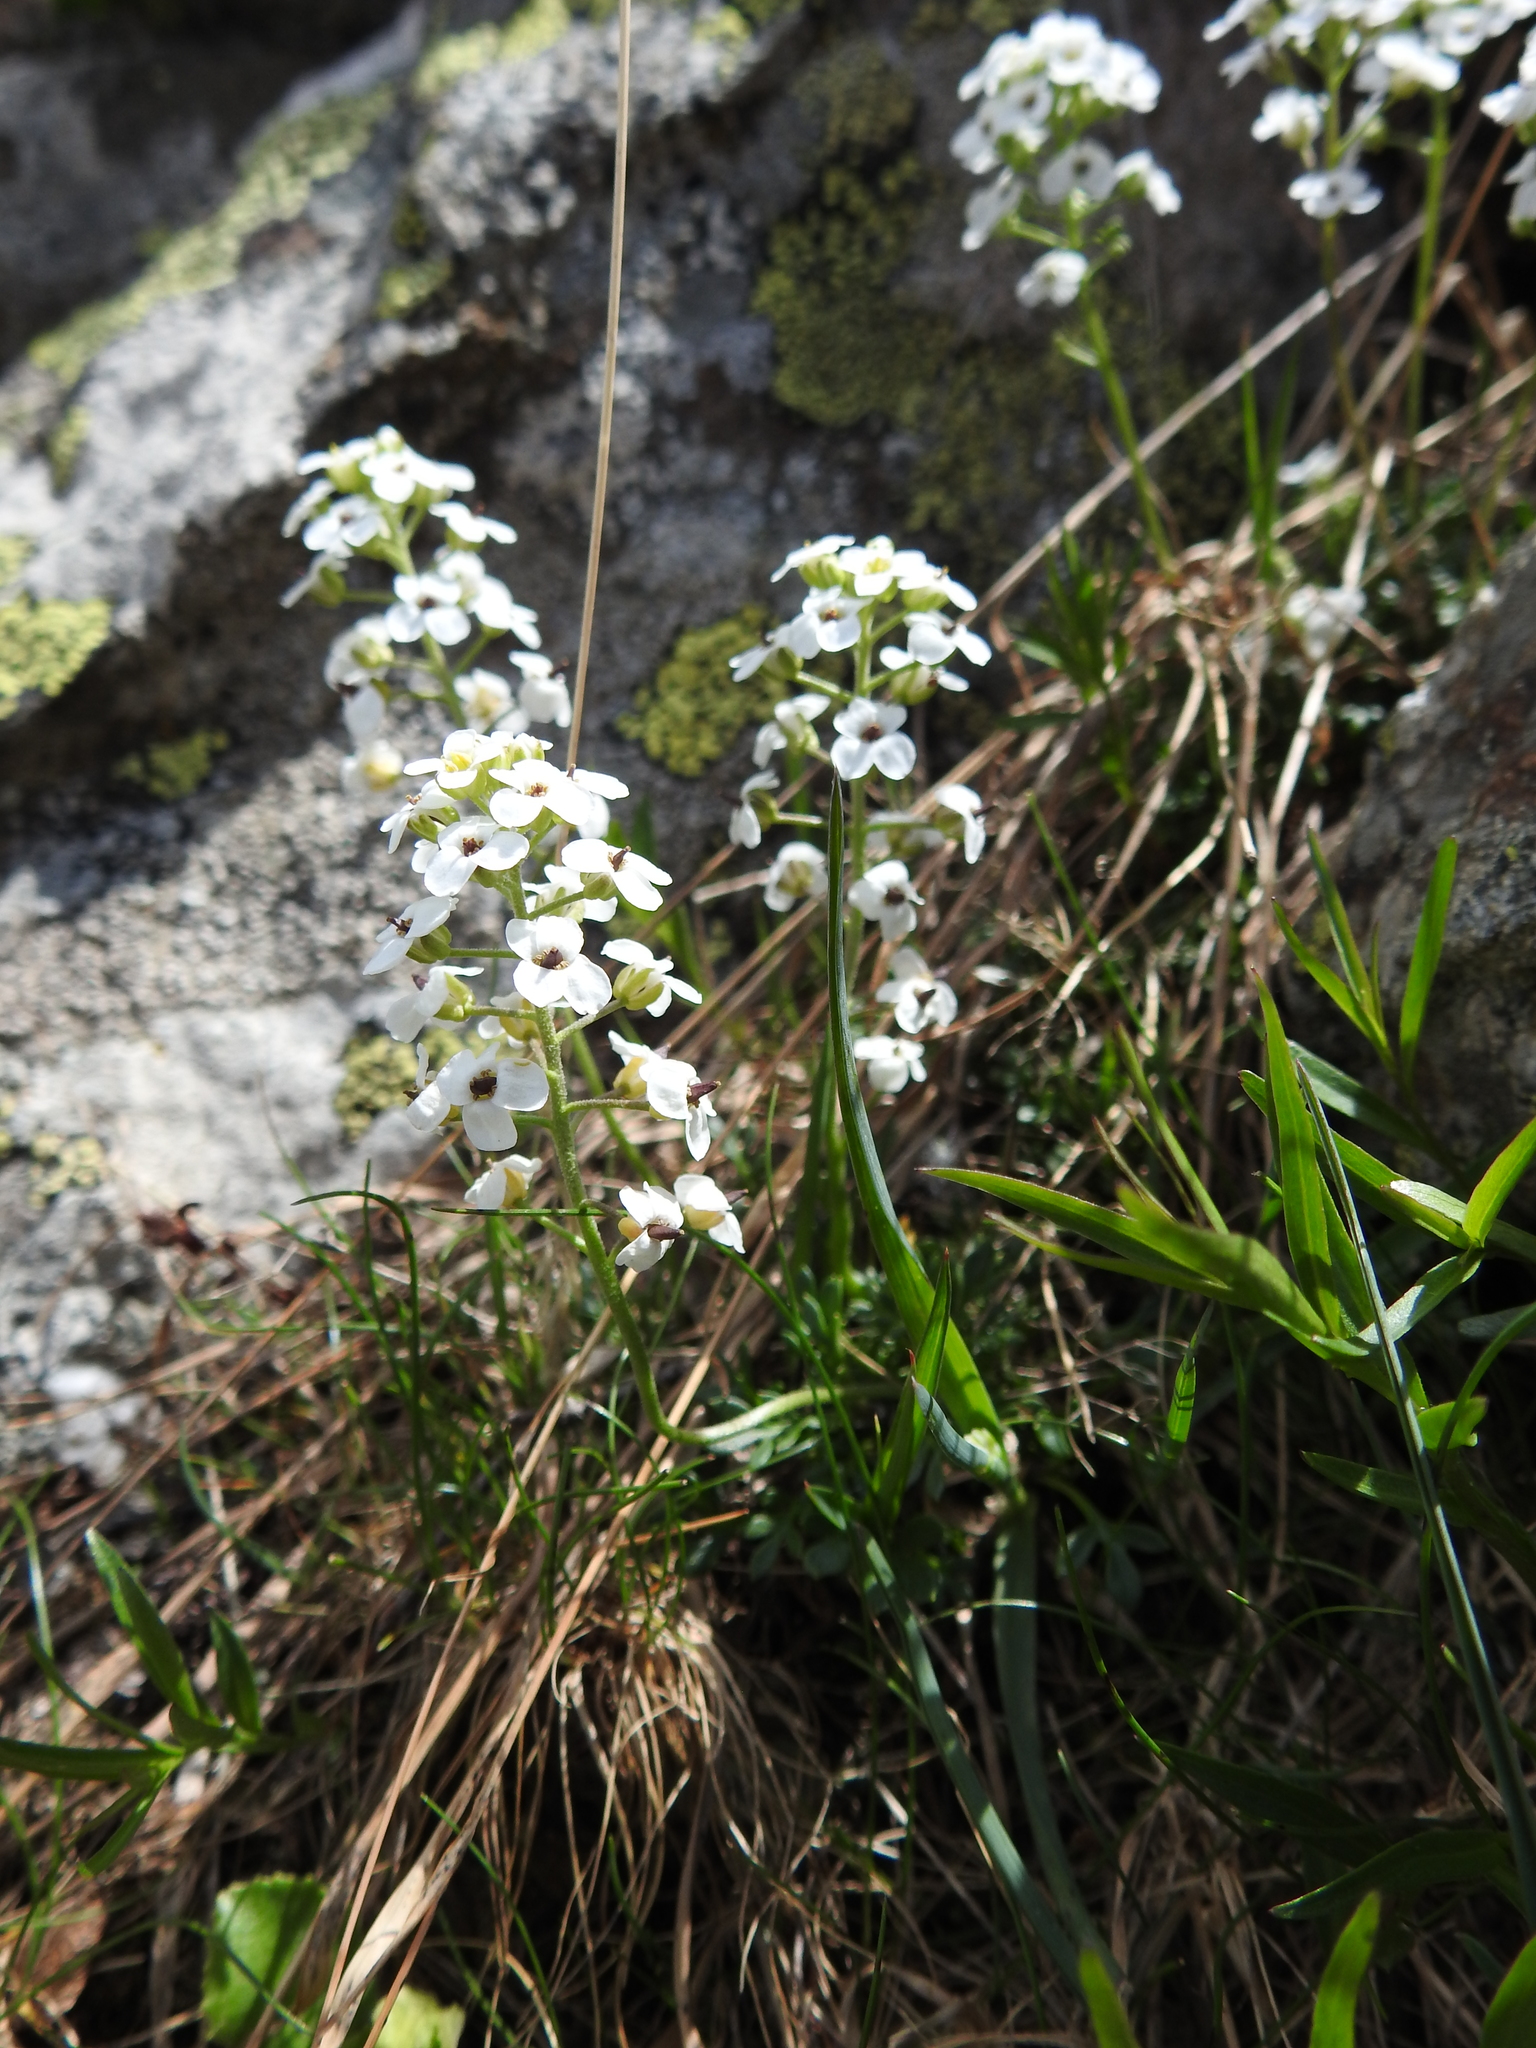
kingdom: Plantae
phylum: Tracheophyta
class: Magnoliopsida
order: Brassicales
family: Brassicaceae
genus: Hornungia
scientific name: Hornungia alpina
